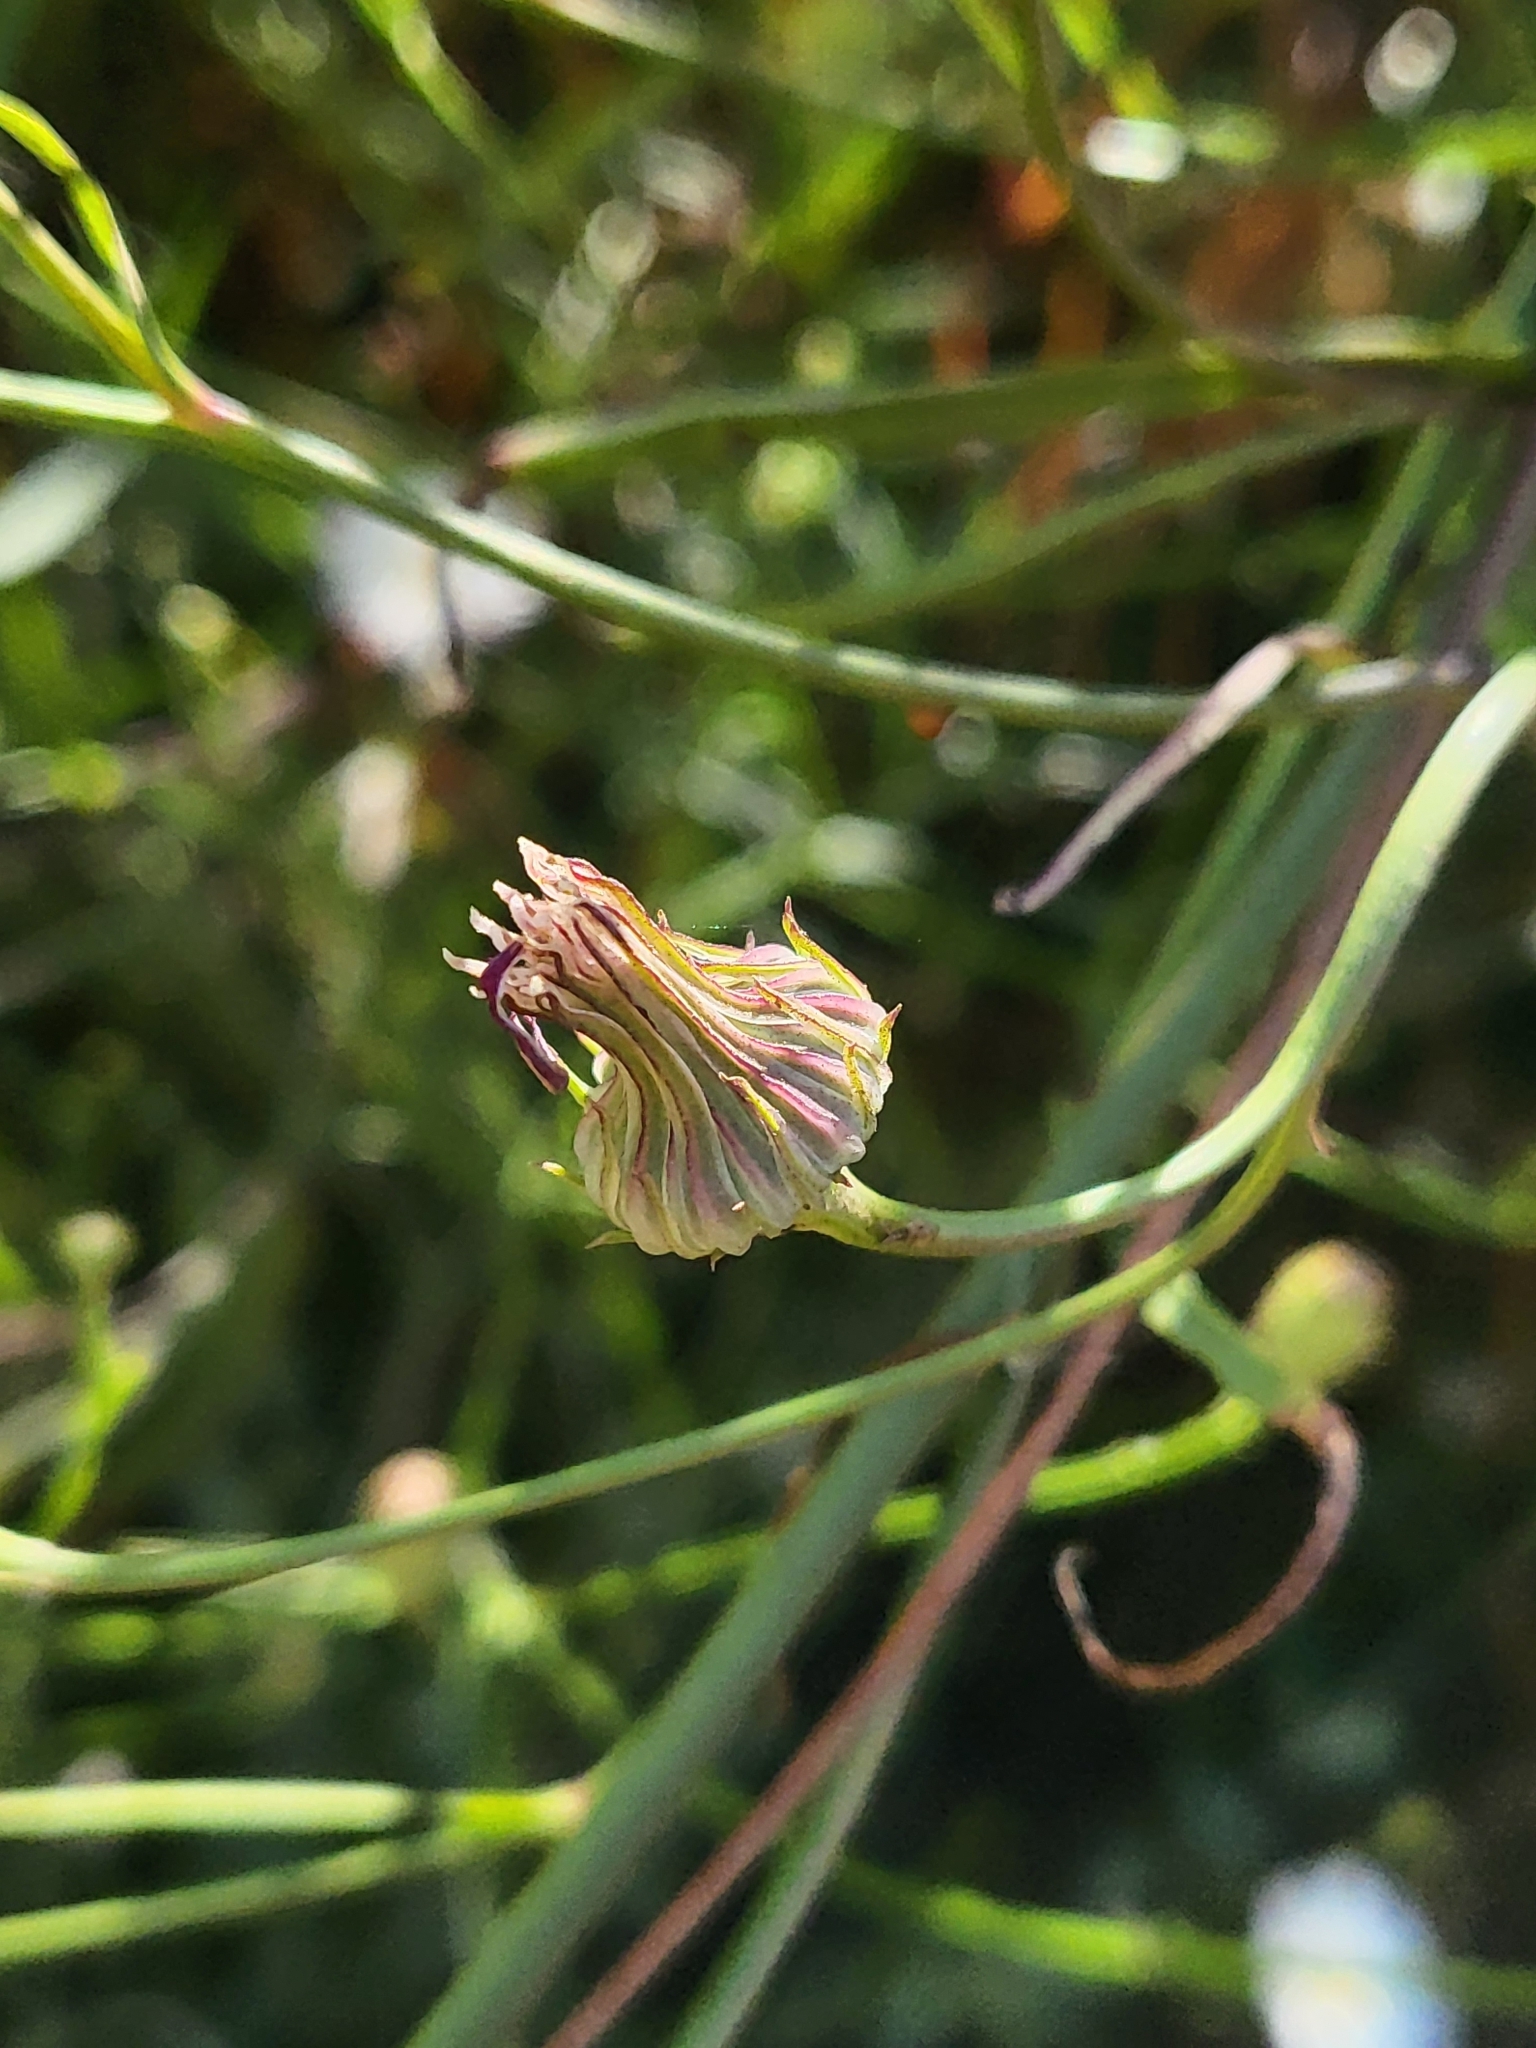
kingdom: Plantae
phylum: Tracheophyta
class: Magnoliopsida
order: Asterales
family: Asteraceae
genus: Malacothrix
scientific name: Malacothrix saxatilis
